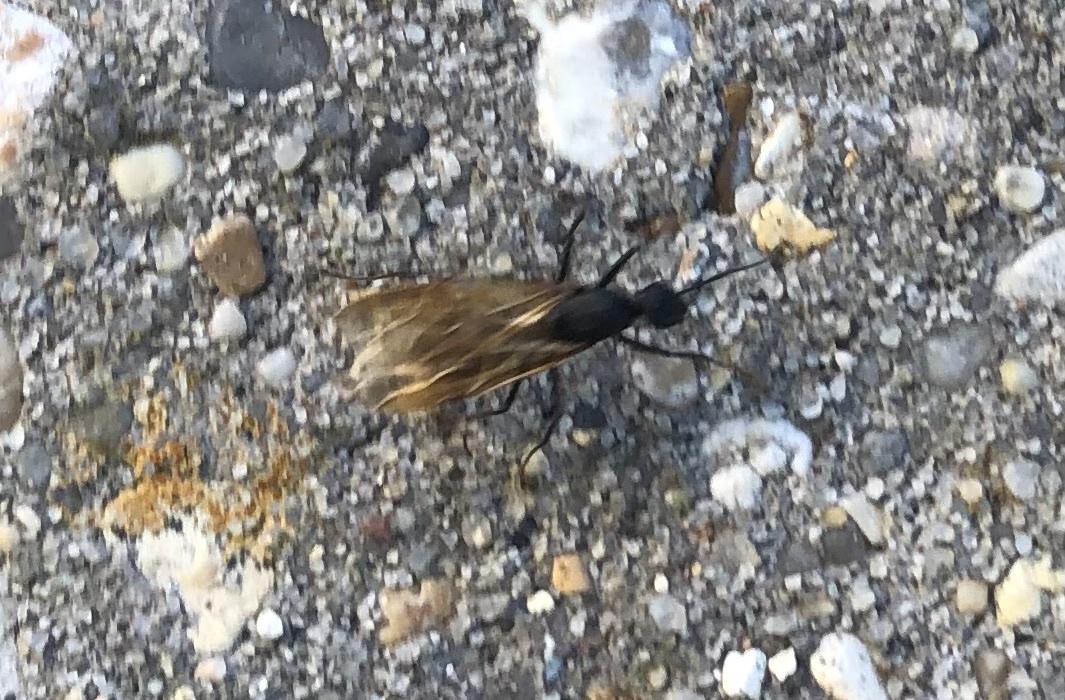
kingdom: Animalia
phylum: Arthropoda
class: Insecta
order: Hymenoptera
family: Formicidae
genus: Camponotus
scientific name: Camponotus pennsylvanicus
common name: Black carpenter ant
